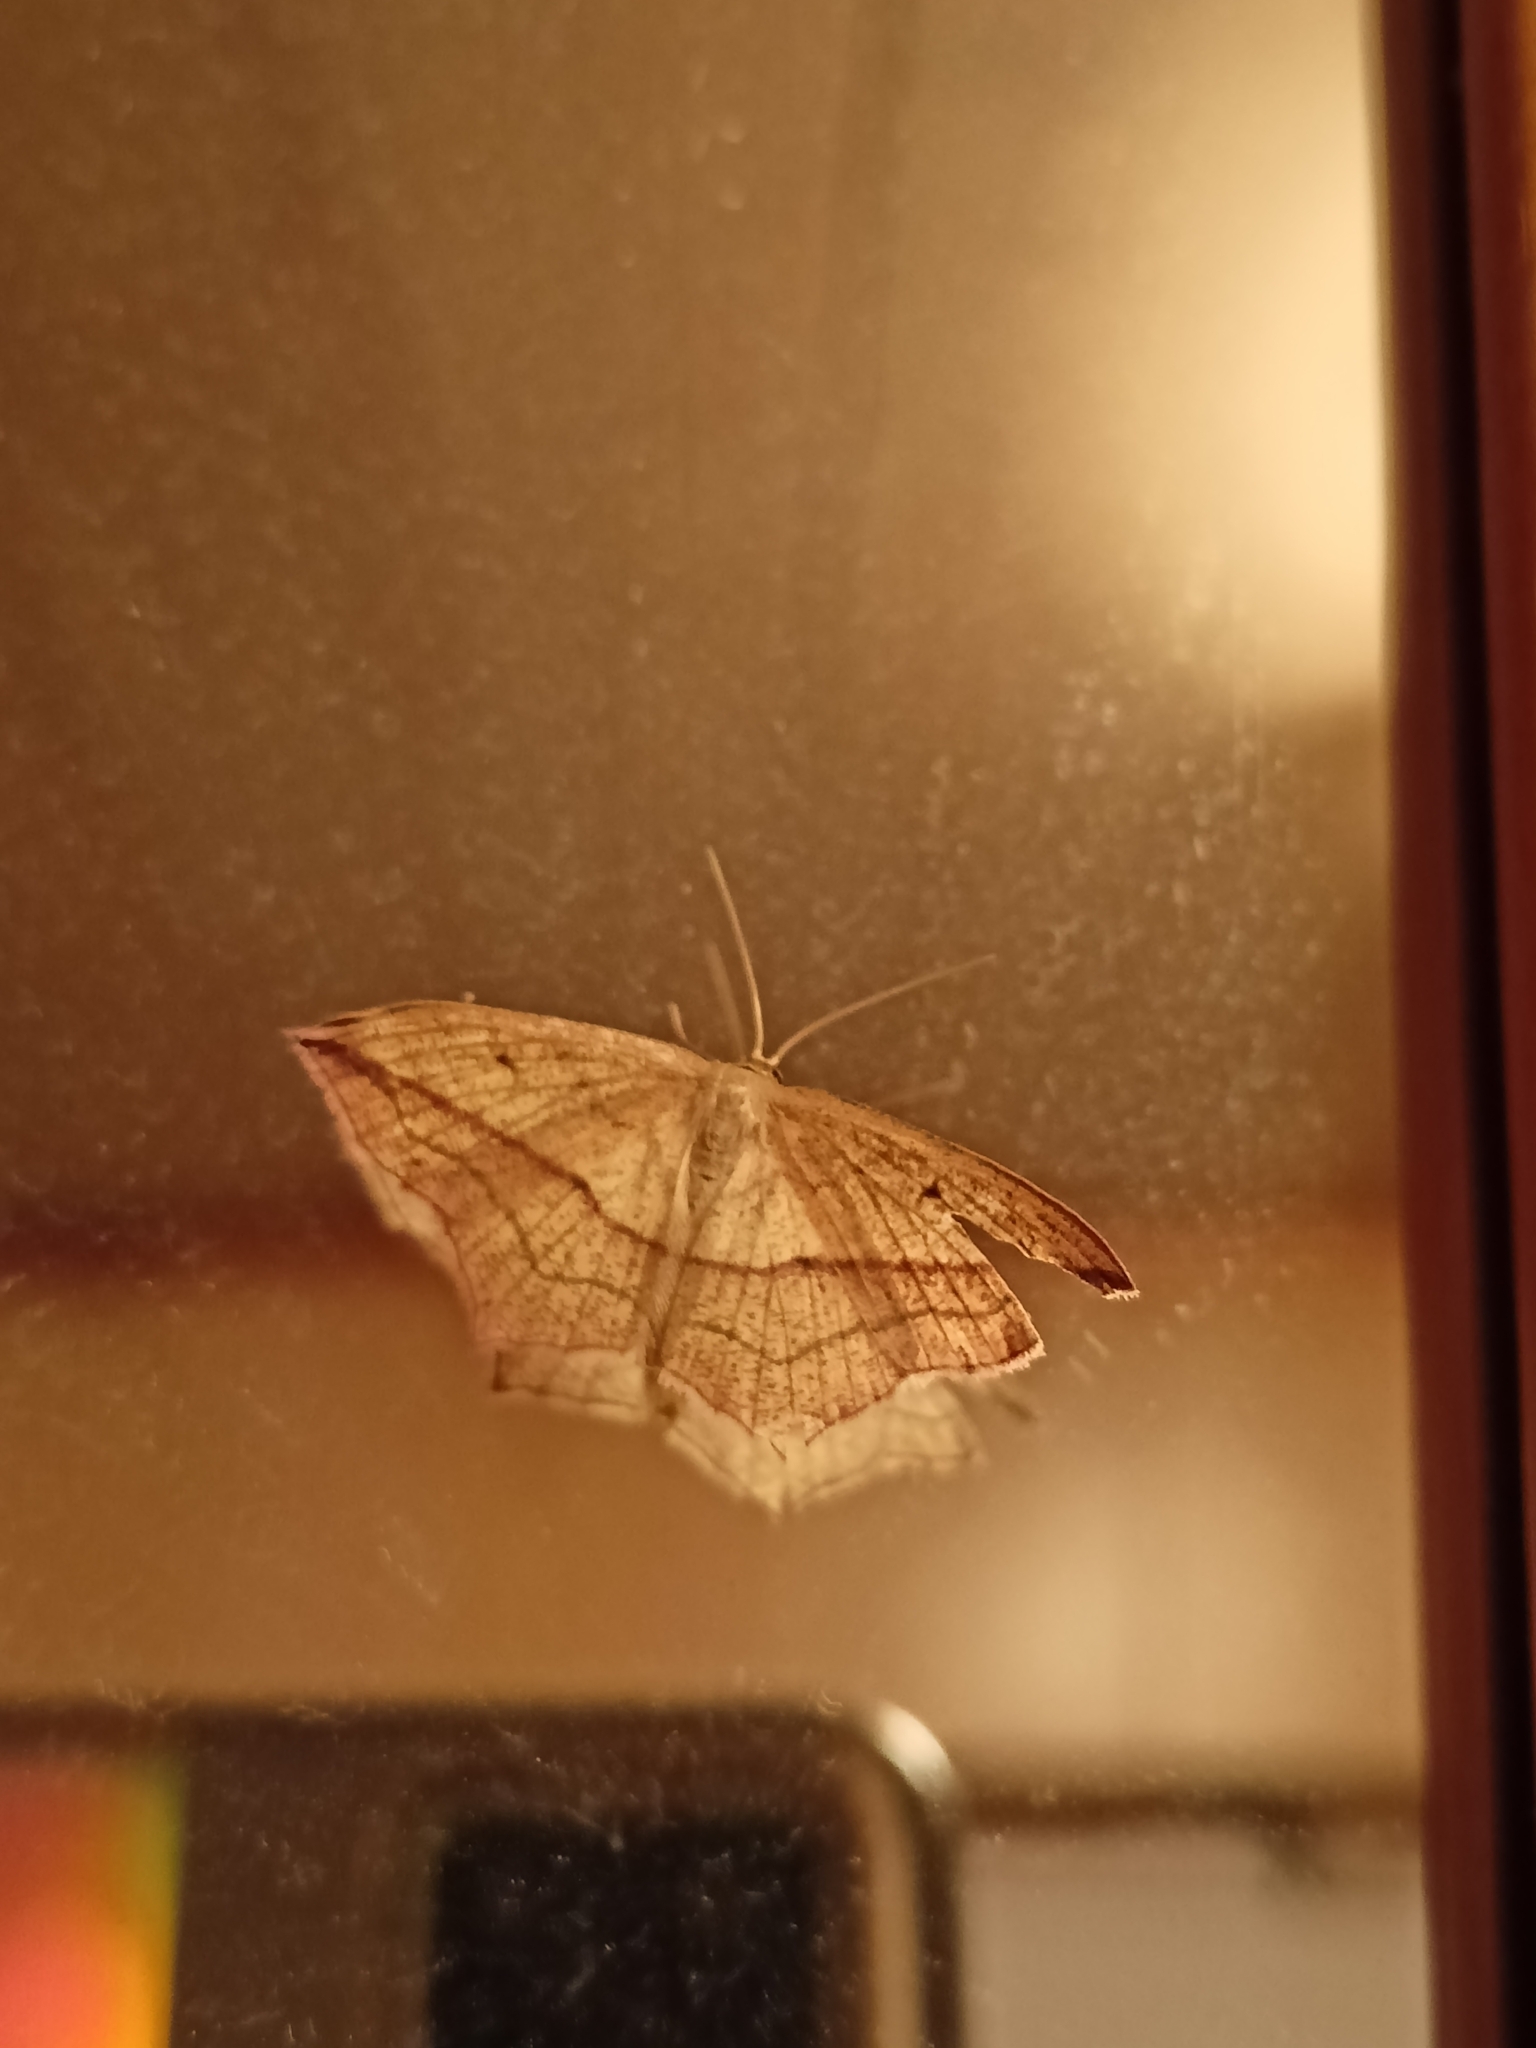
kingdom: Animalia
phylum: Arthropoda
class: Insecta
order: Lepidoptera
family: Geometridae
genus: Timandra
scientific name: Timandra comae
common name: Blood-vein
